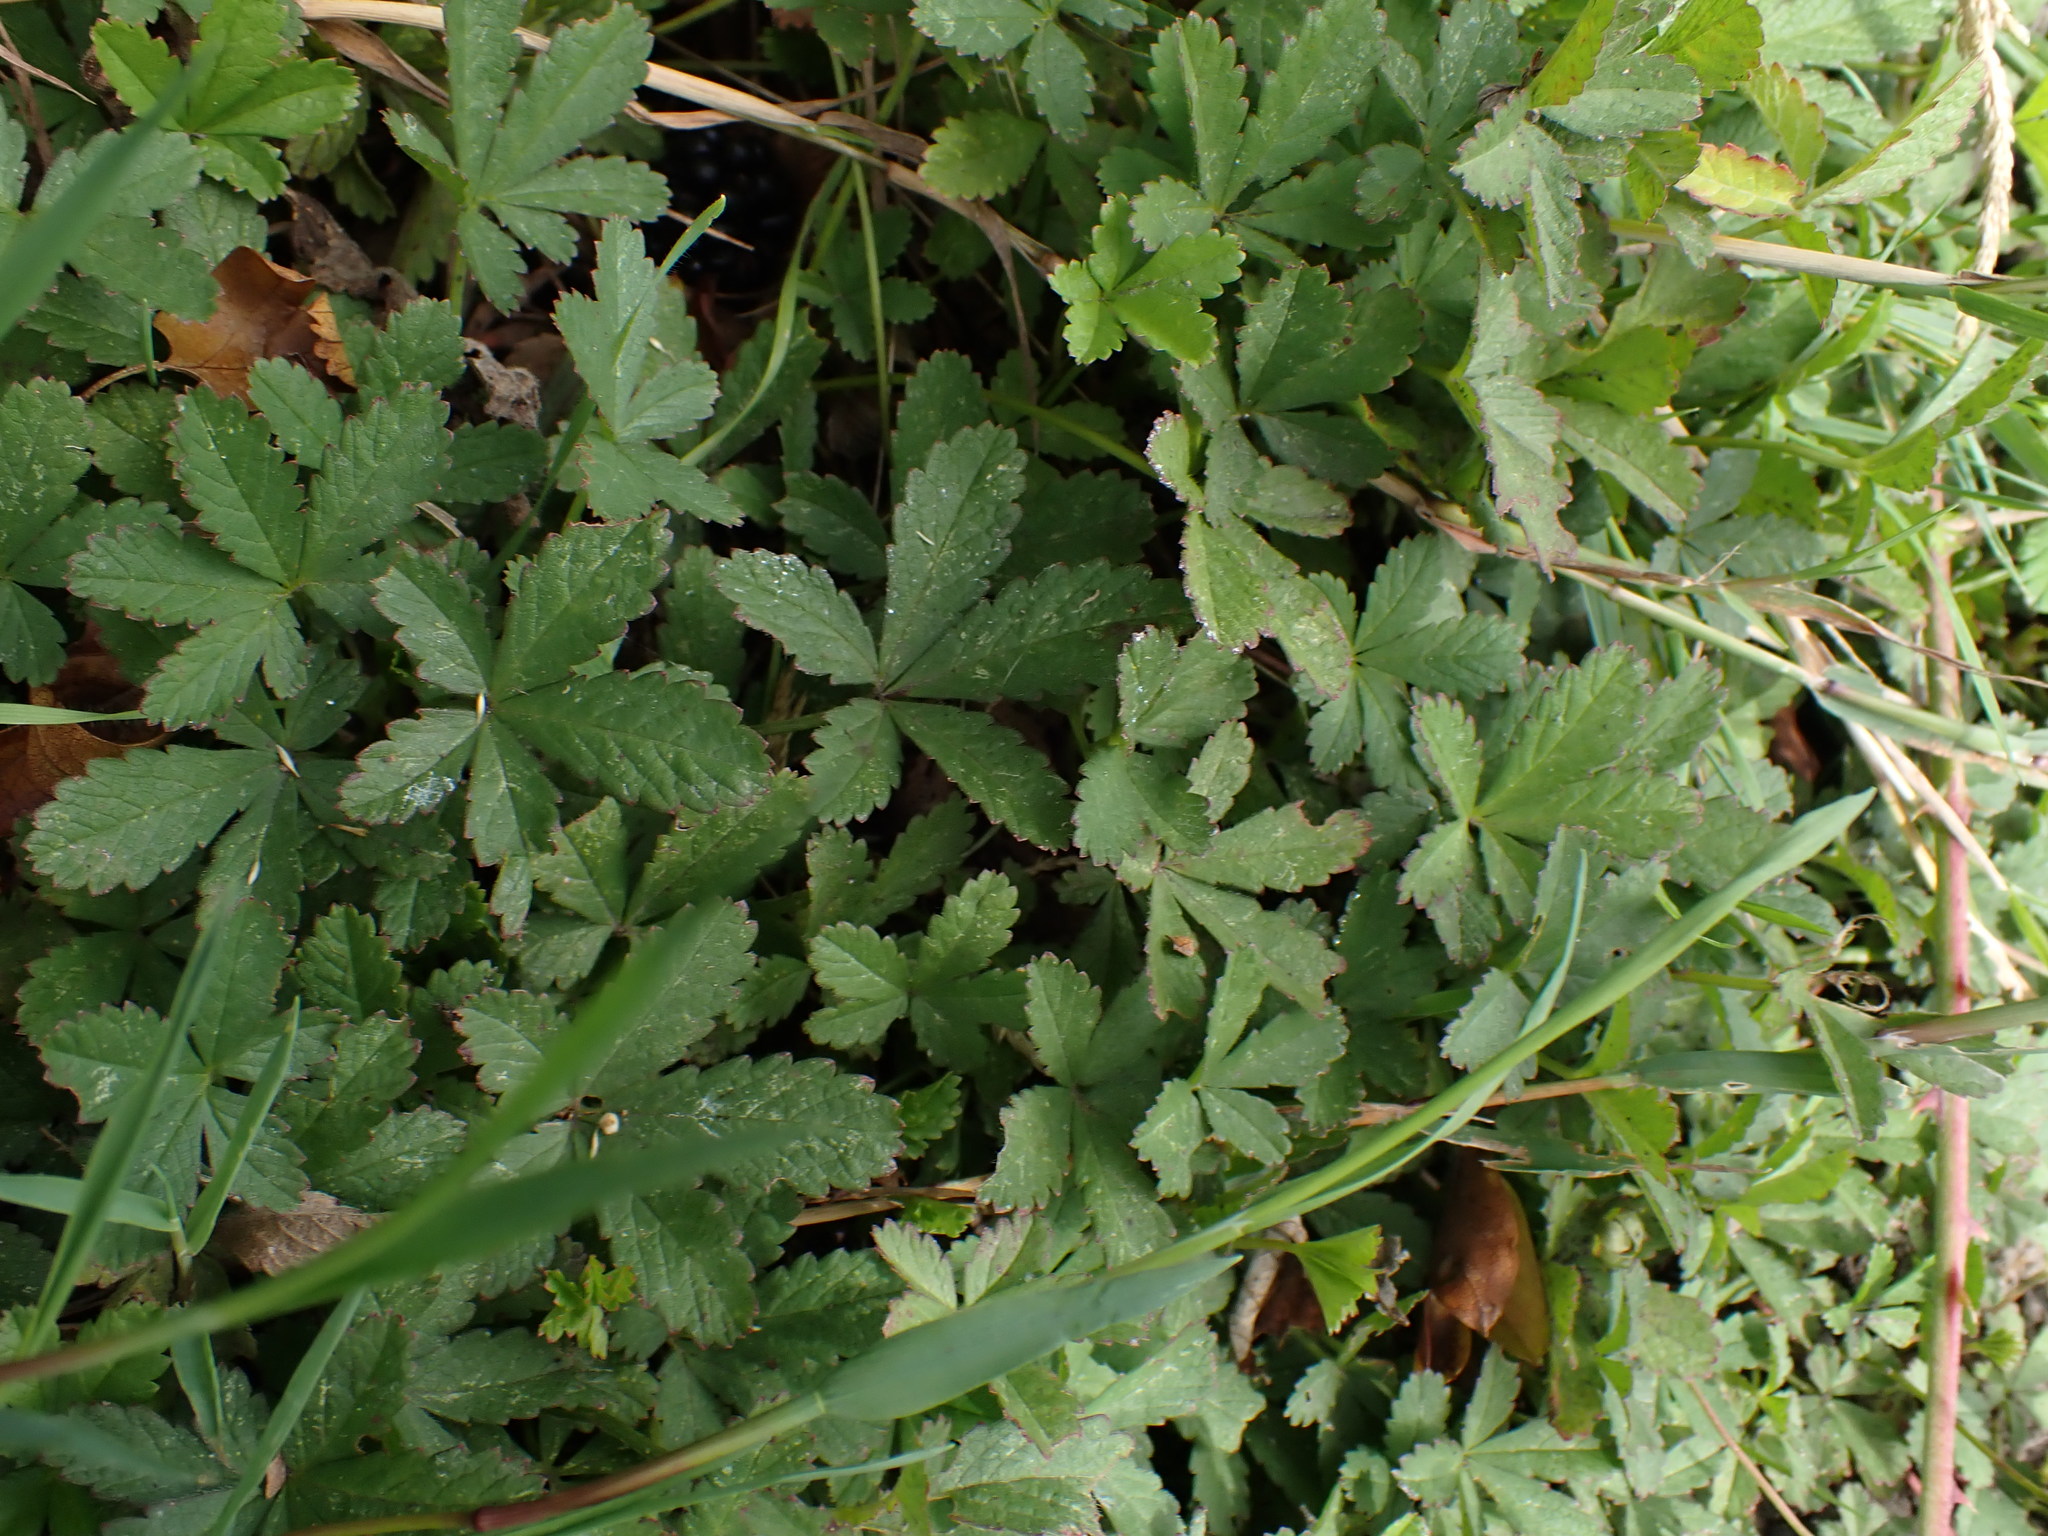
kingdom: Plantae
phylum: Tracheophyta
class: Magnoliopsida
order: Rosales
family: Rosaceae
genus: Potentilla
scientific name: Potentilla reptans
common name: Creeping cinquefoil
